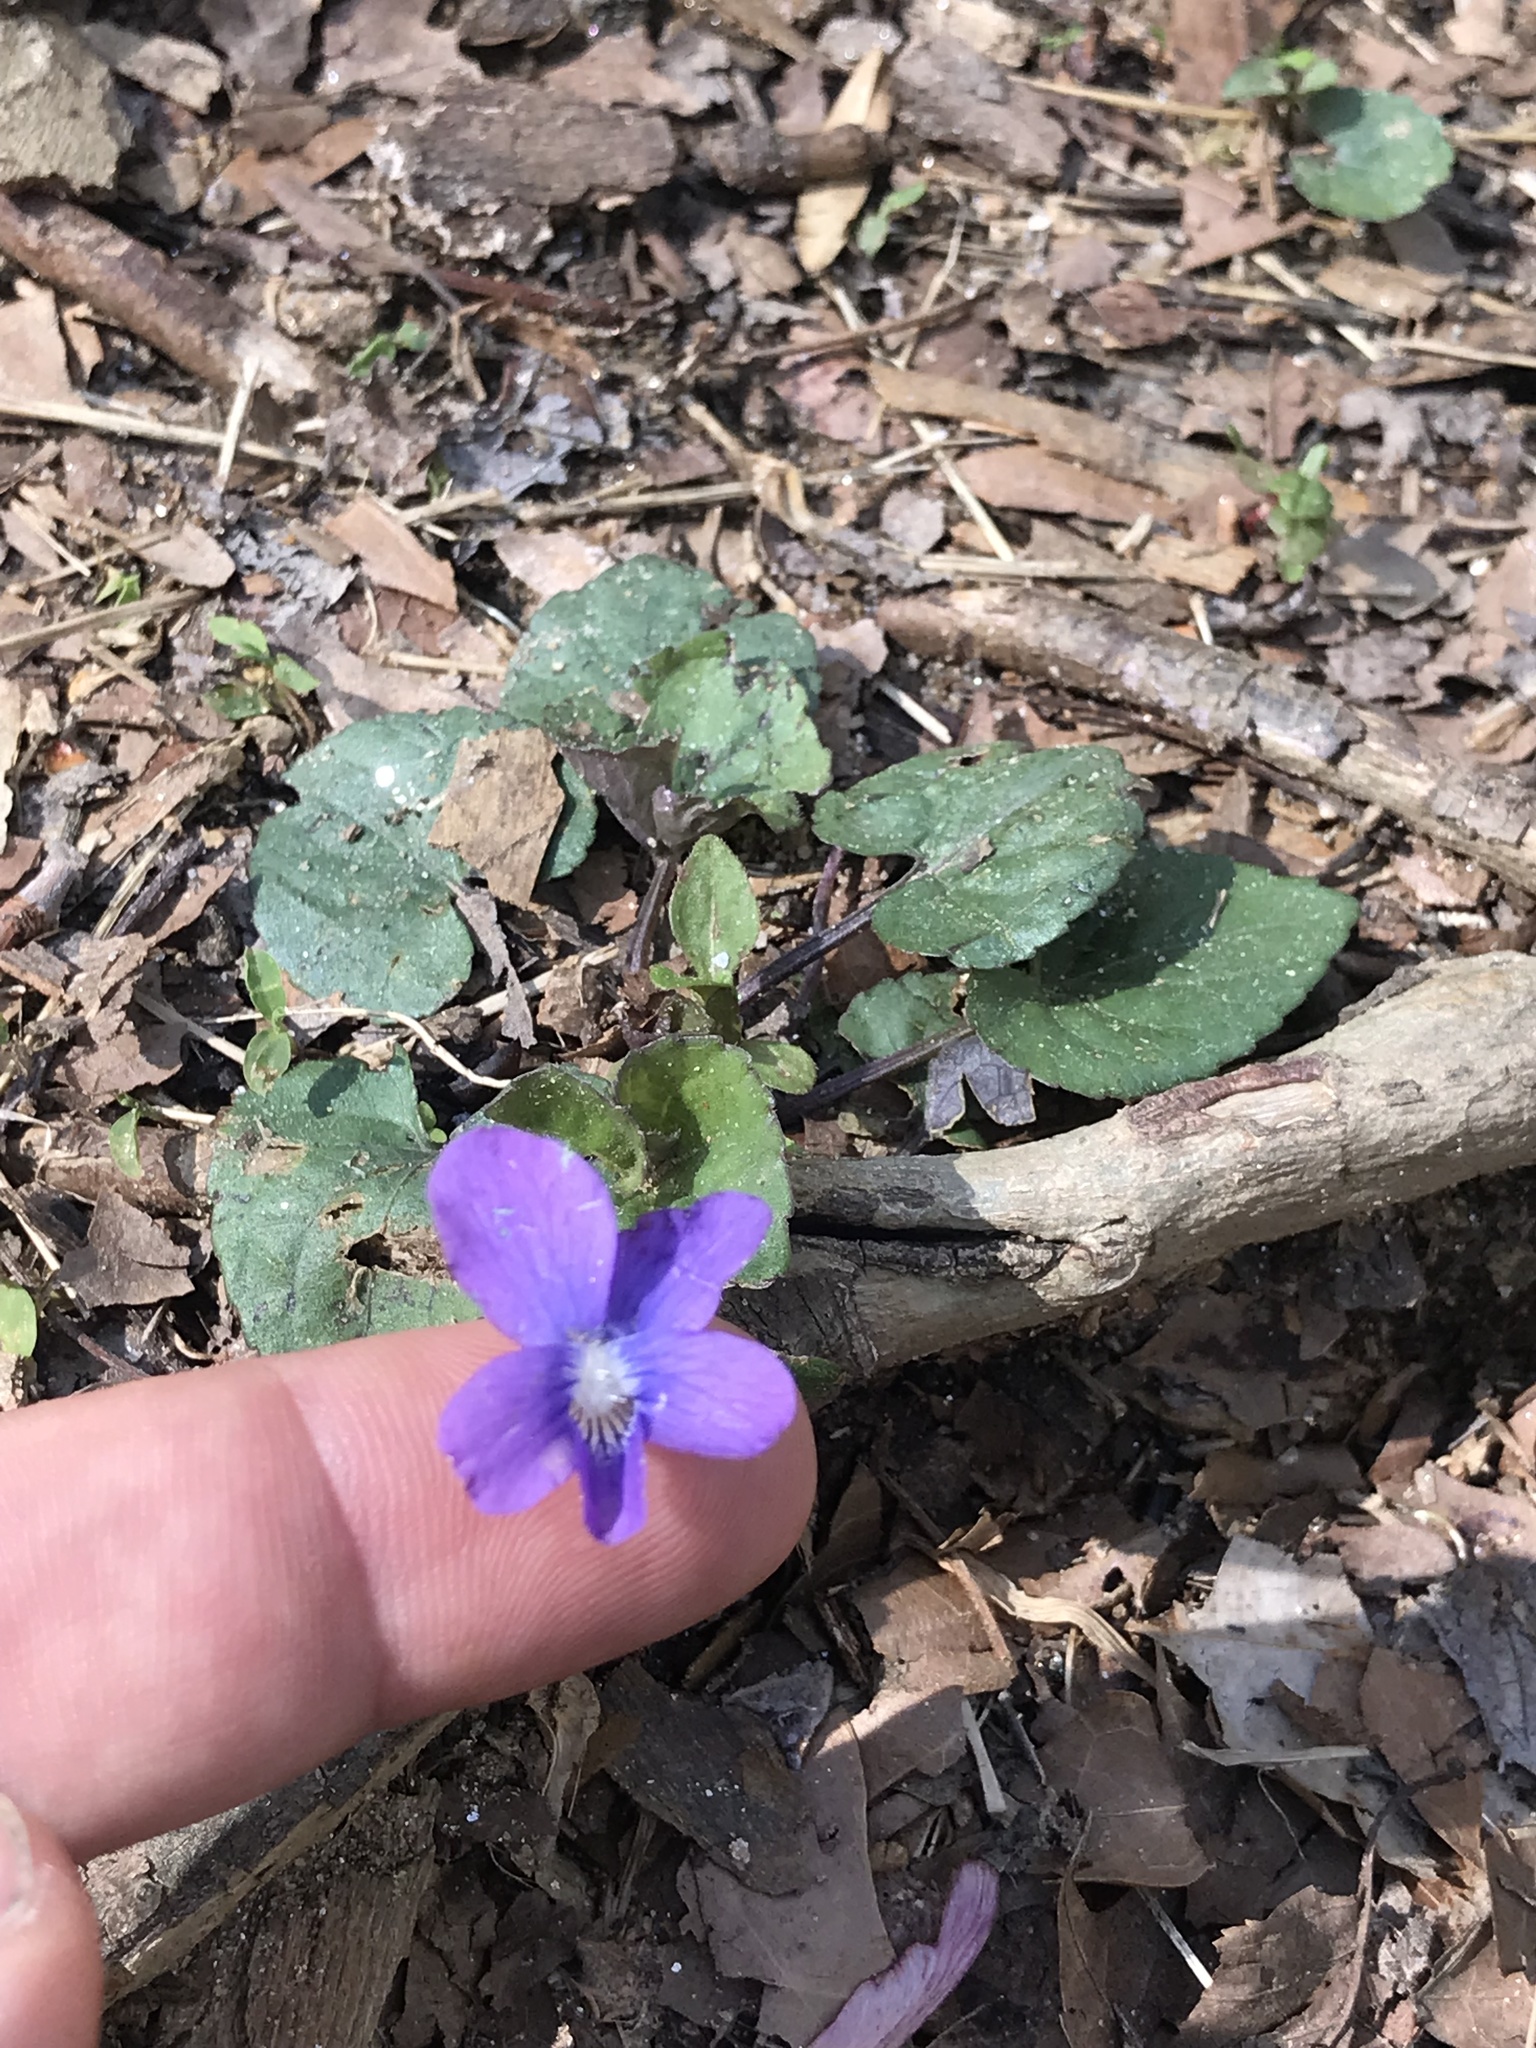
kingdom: Plantae
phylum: Tracheophyta
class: Magnoliopsida
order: Malpighiales
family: Violaceae
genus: Viola
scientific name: Viola sororia
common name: Dooryard violet
